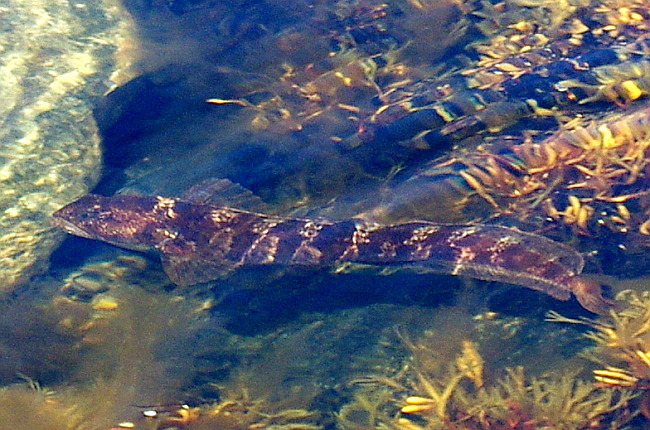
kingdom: Animalia
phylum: Chordata
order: Perciformes
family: Zoarcidae
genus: Zoarces
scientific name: Zoarces viviparus
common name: Viviparous blenny
